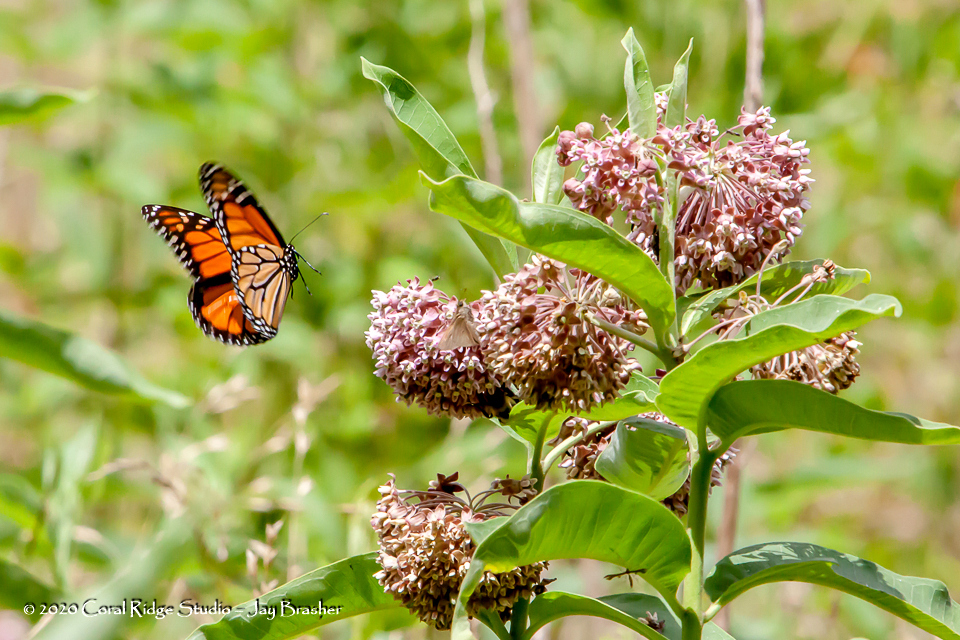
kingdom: Plantae
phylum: Tracheophyta
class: Magnoliopsida
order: Gentianales
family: Apocynaceae
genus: Asclepias
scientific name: Asclepias syriaca
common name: Common milkweed
